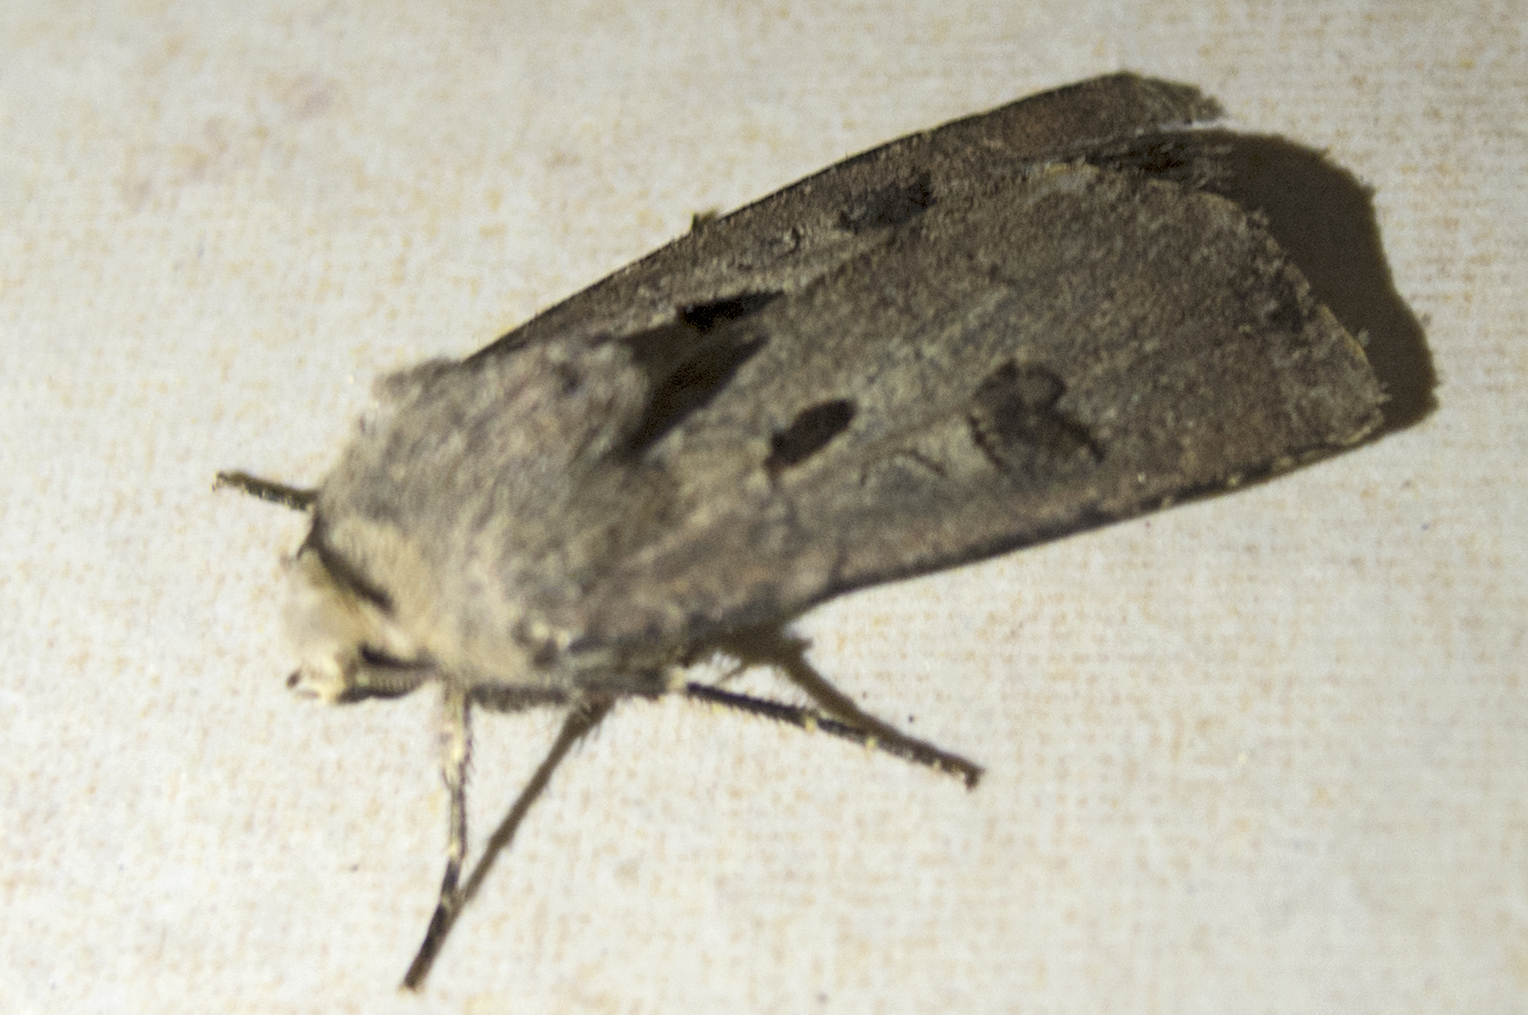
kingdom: Animalia
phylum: Arthropoda
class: Insecta
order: Lepidoptera
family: Noctuidae
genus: Agrotis
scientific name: Agrotis exclamationis
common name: Heart and dart
